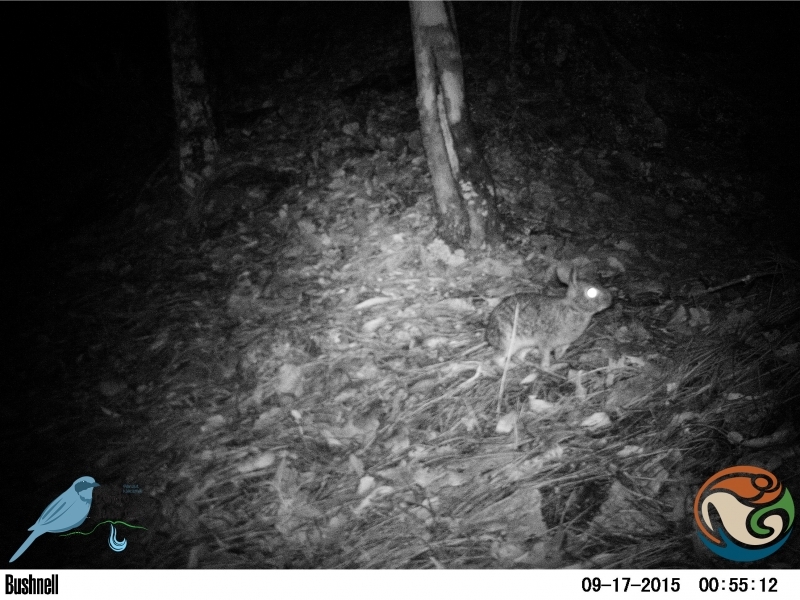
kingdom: Animalia
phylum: Chordata
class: Mammalia
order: Lagomorpha
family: Leporidae
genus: Sylvilagus
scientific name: Sylvilagus floridanus
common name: Eastern cottontail
